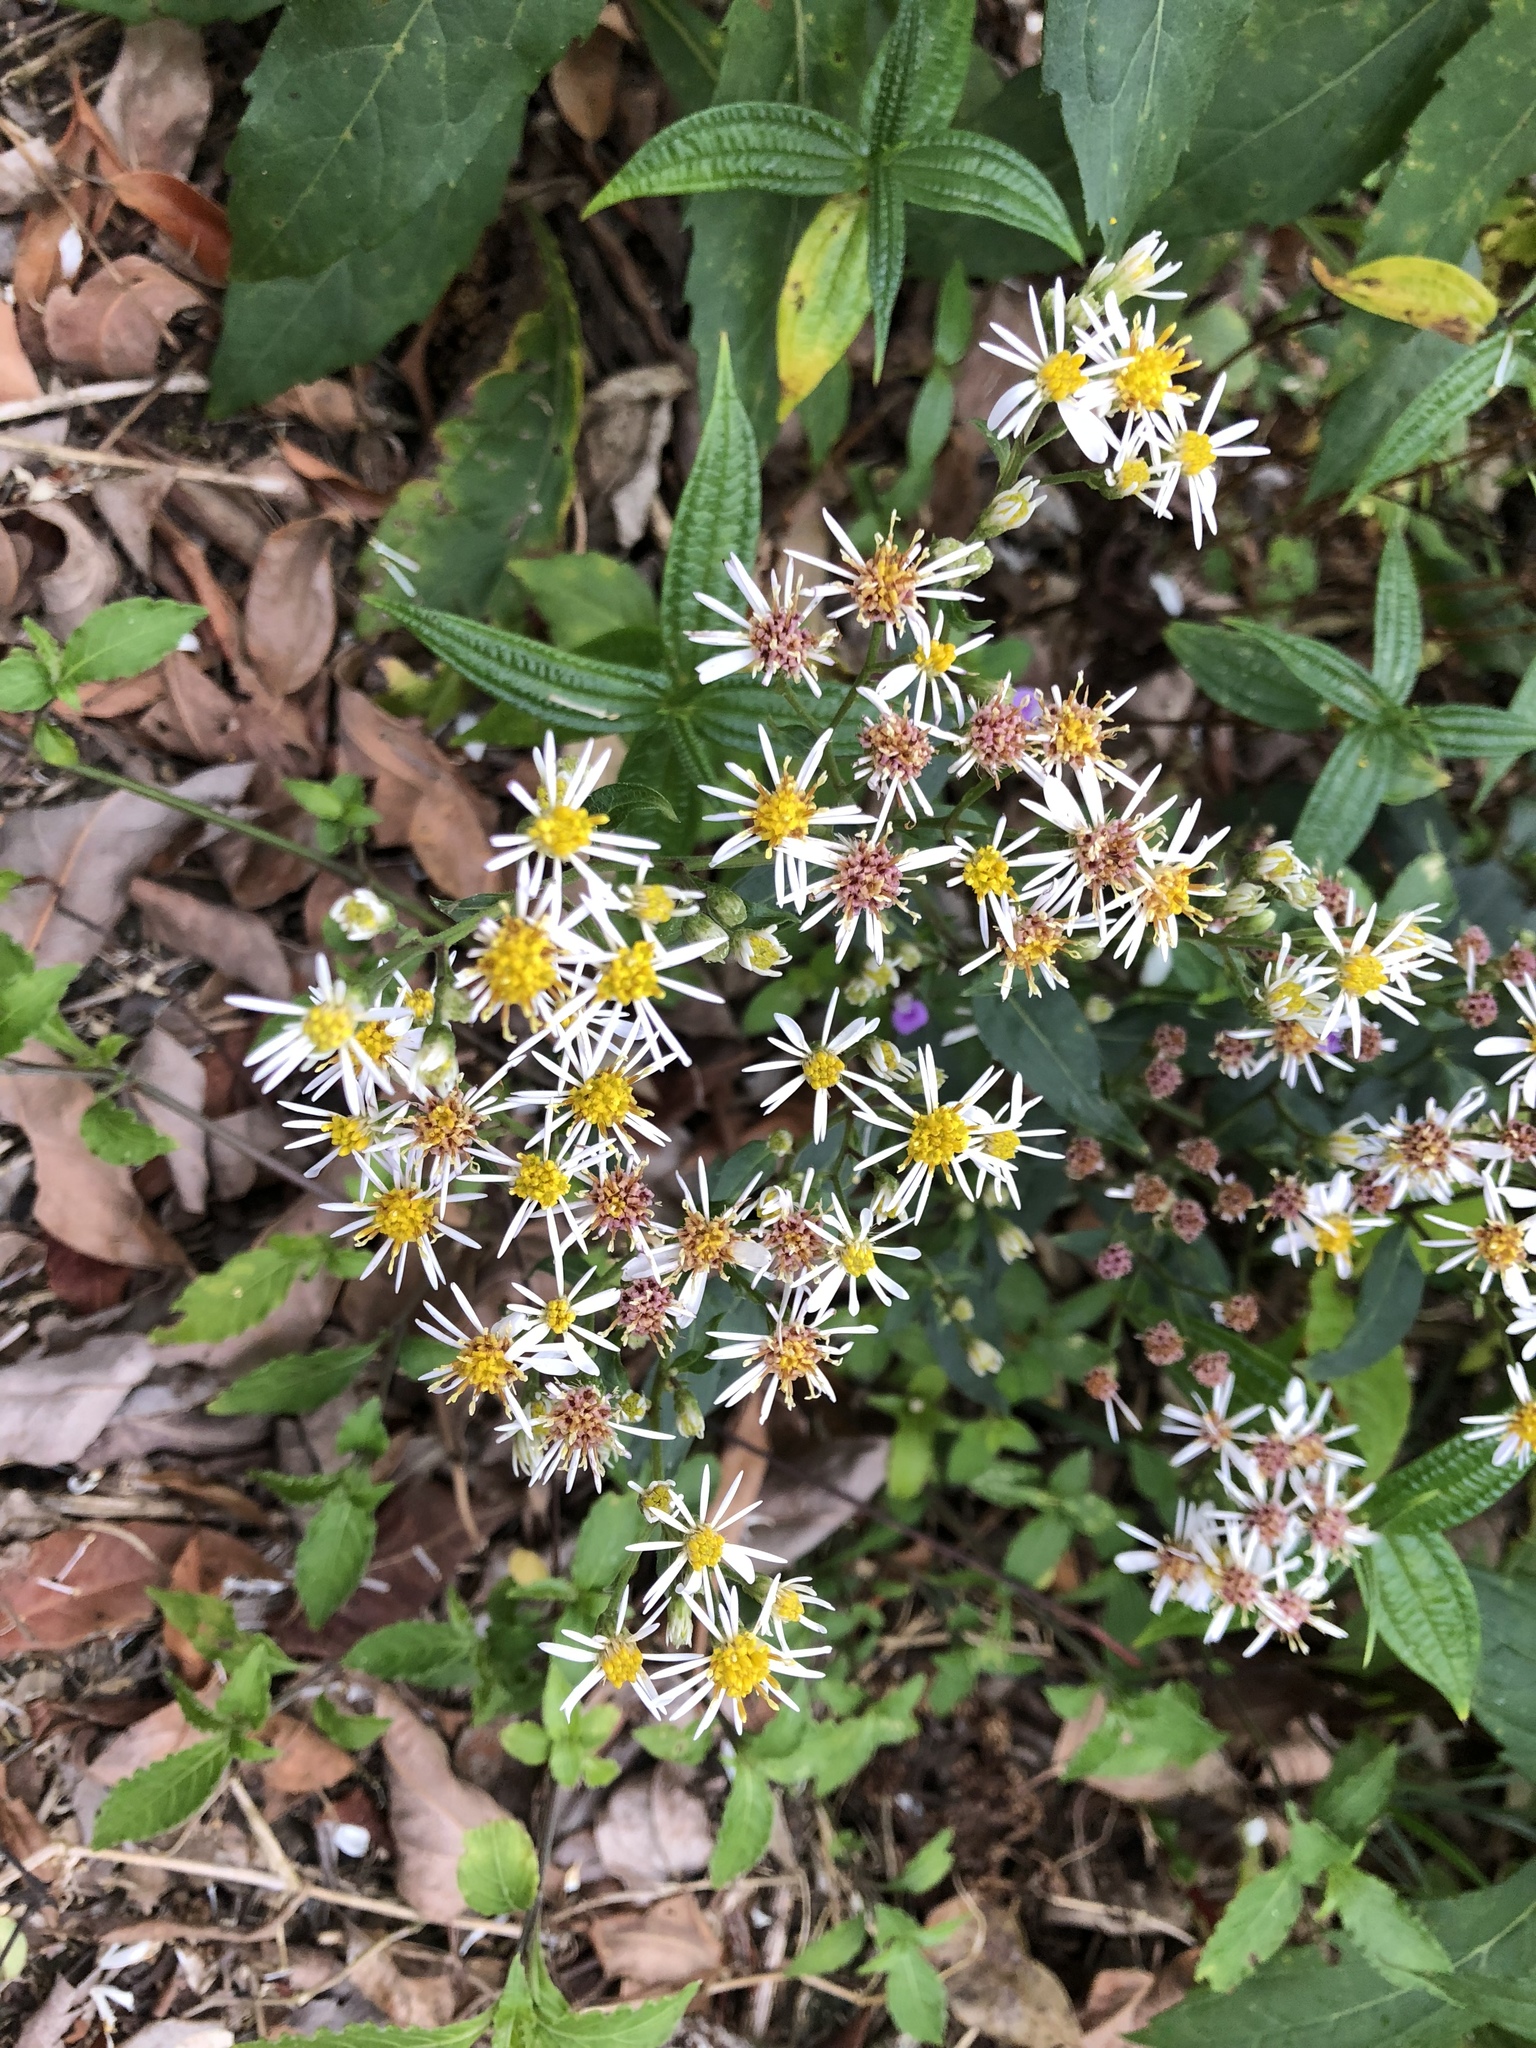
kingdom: Plantae
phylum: Tracheophyta
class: Magnoliopsida
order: Asterales
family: Asteraceae
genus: Aster
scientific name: Aster ageratoides
